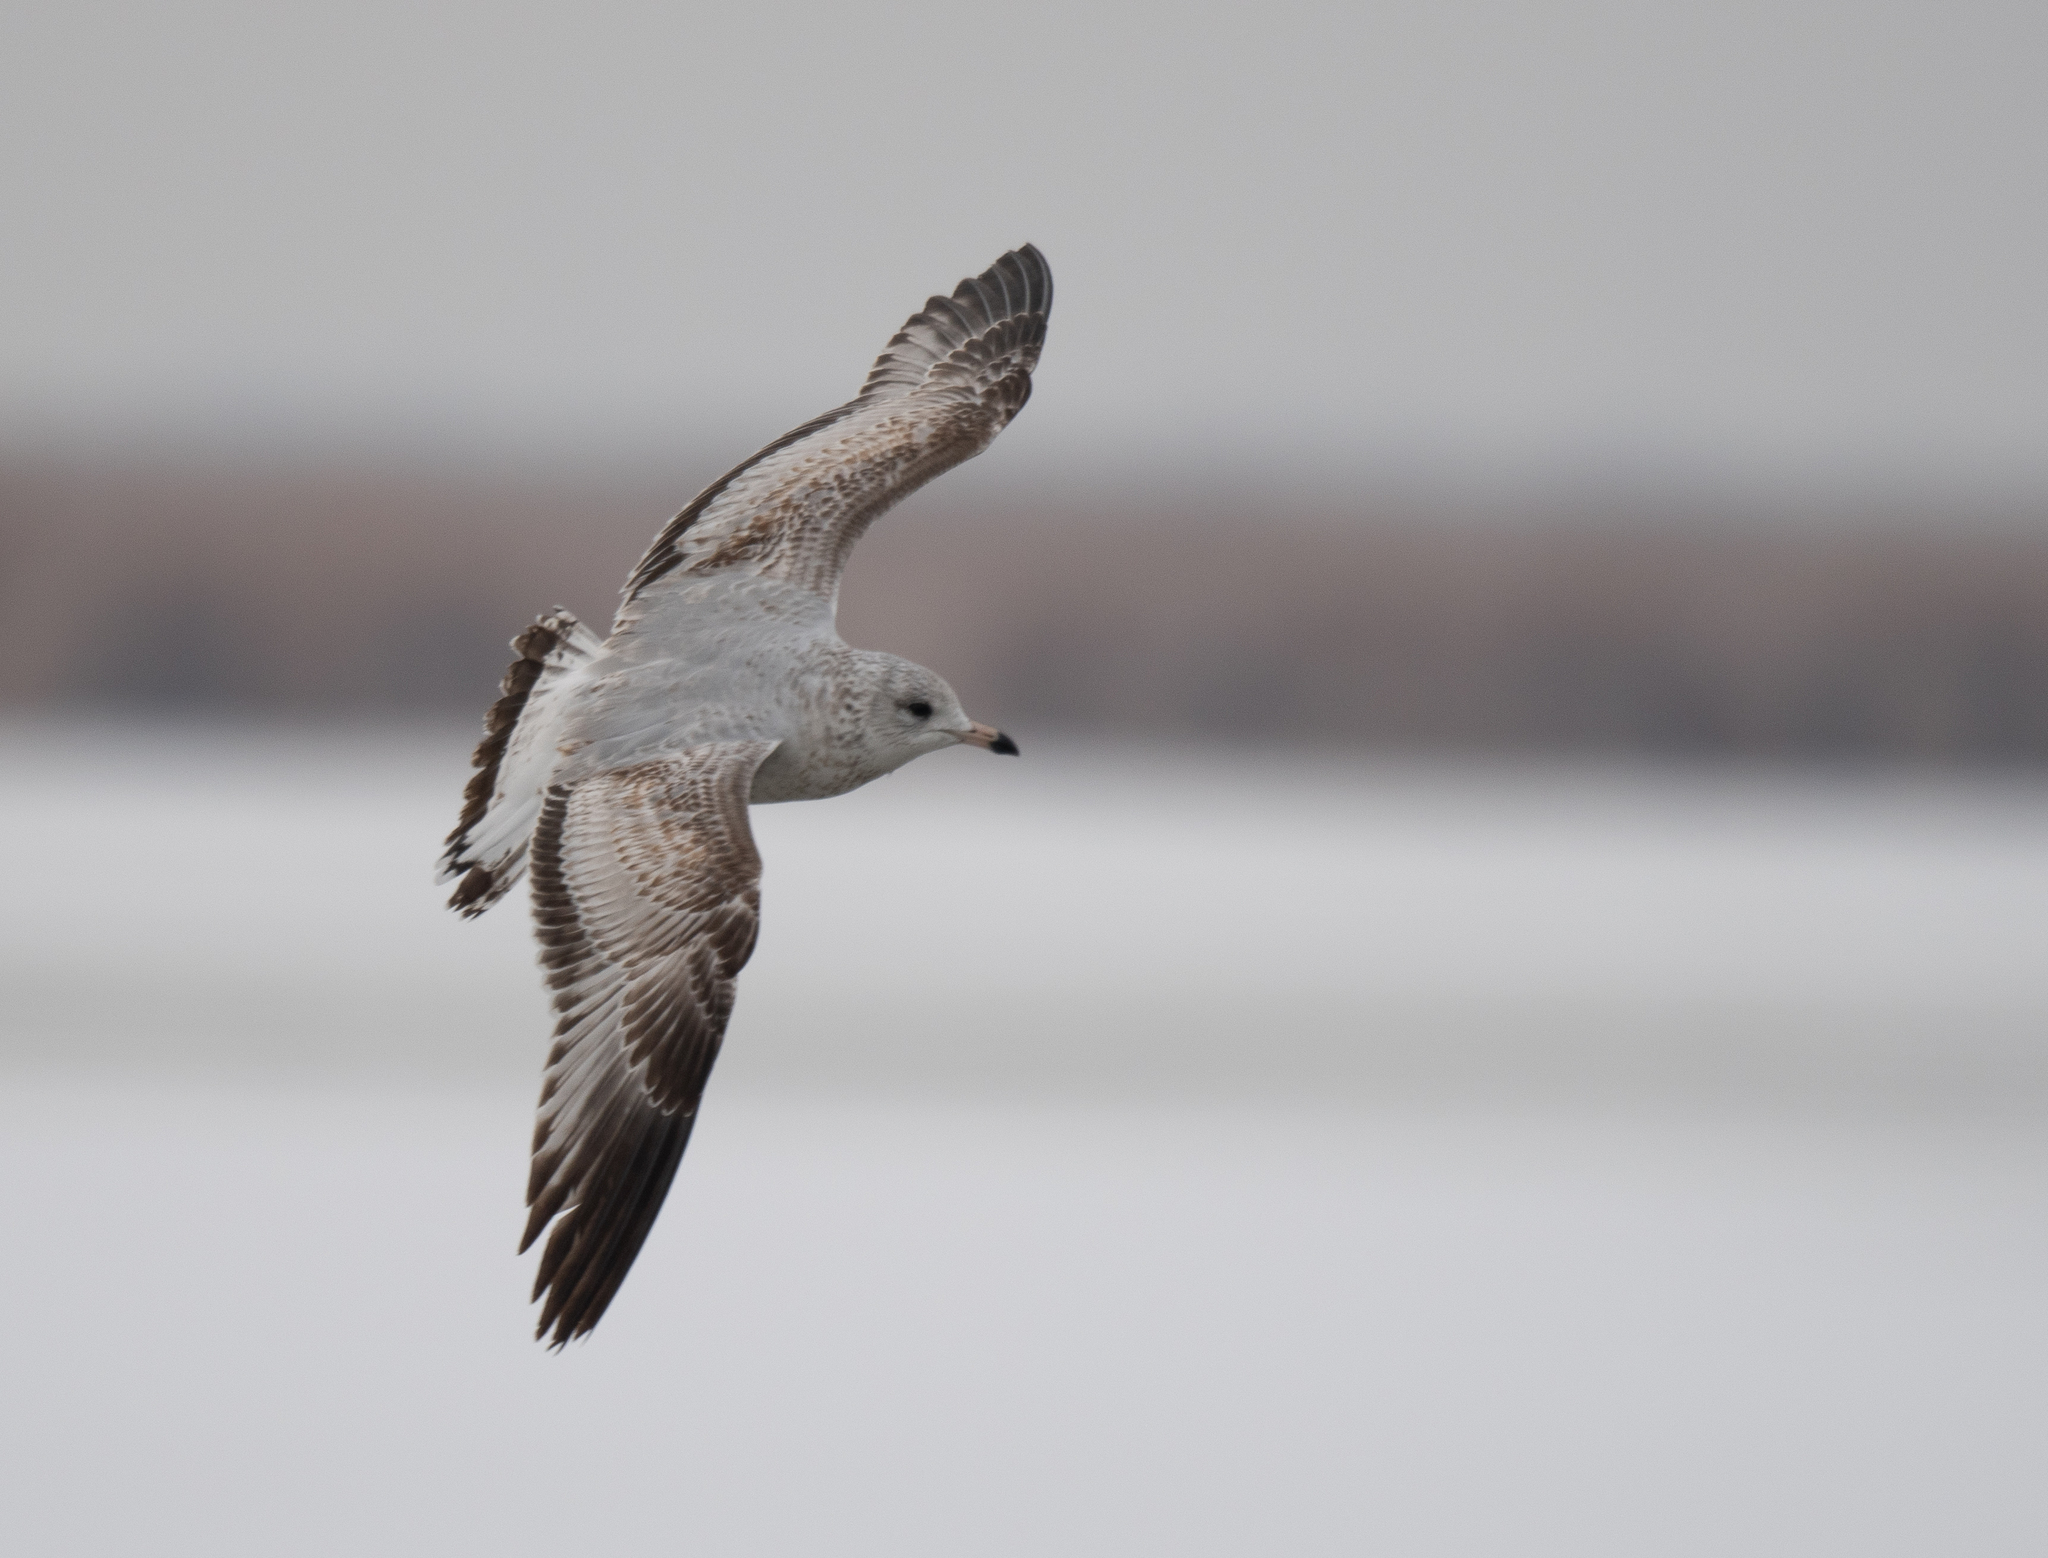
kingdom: Animalia
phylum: Chordata
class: Aves
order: Charadriiformes
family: Laridae
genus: Larus
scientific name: Larus delawarensis
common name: Ring-billed gull
